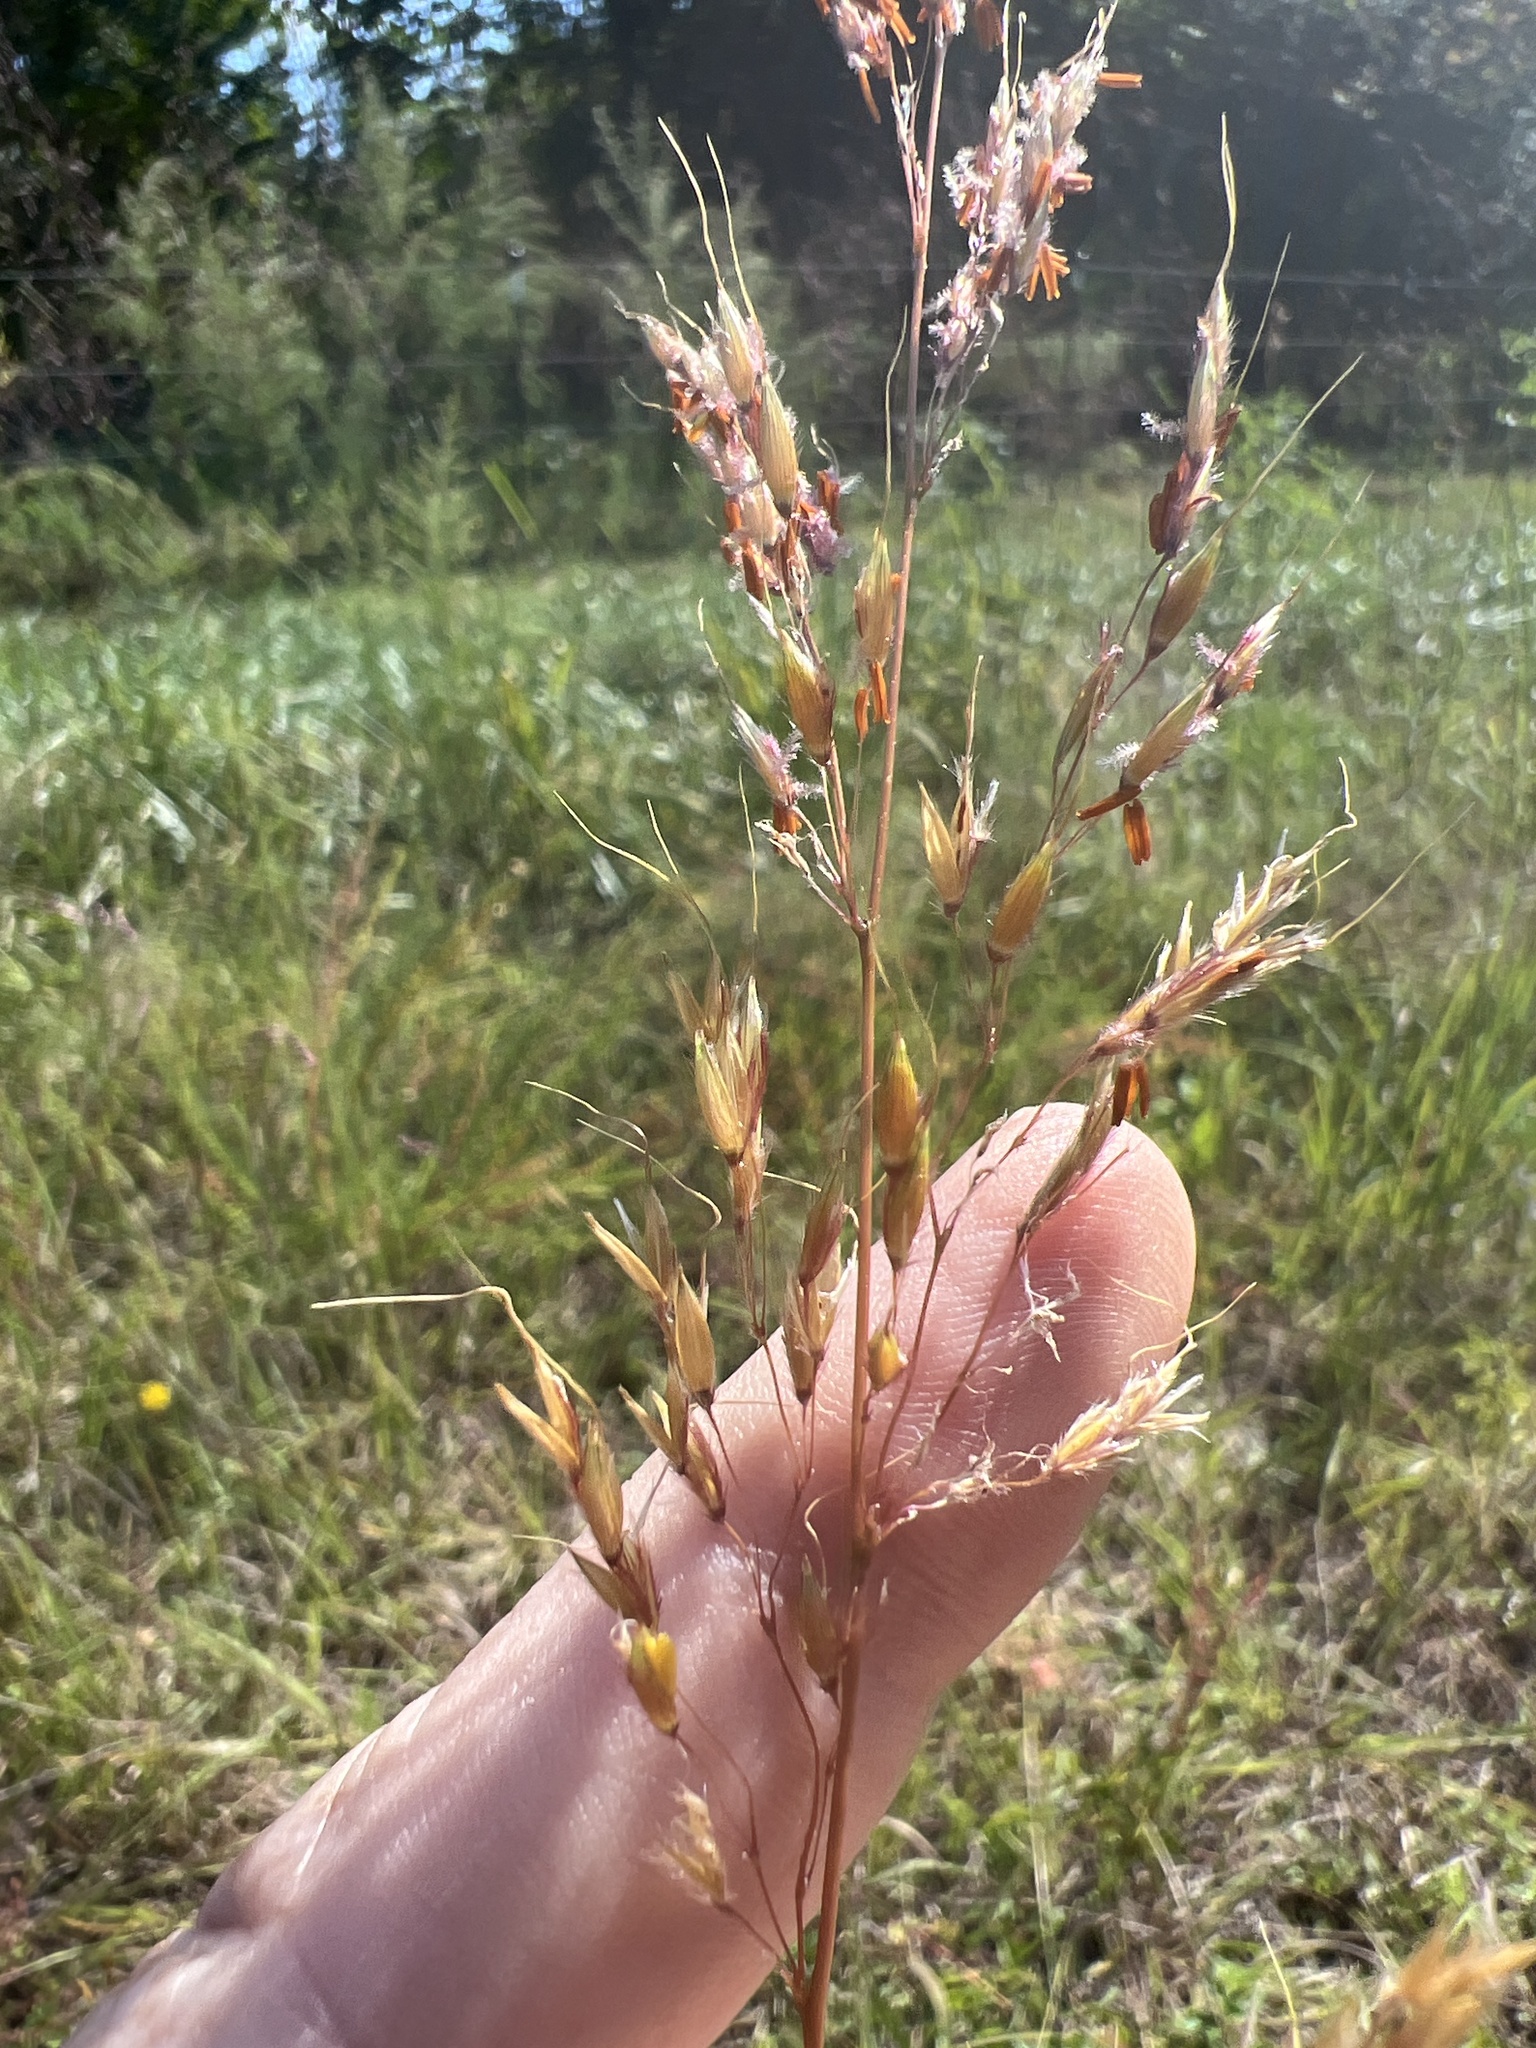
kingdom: Plantae
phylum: Tracheophyta
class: Liliopsida
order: Poales
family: Poaceae
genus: Sorghastrum
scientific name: Sorghastrum nutans
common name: Indian grass
